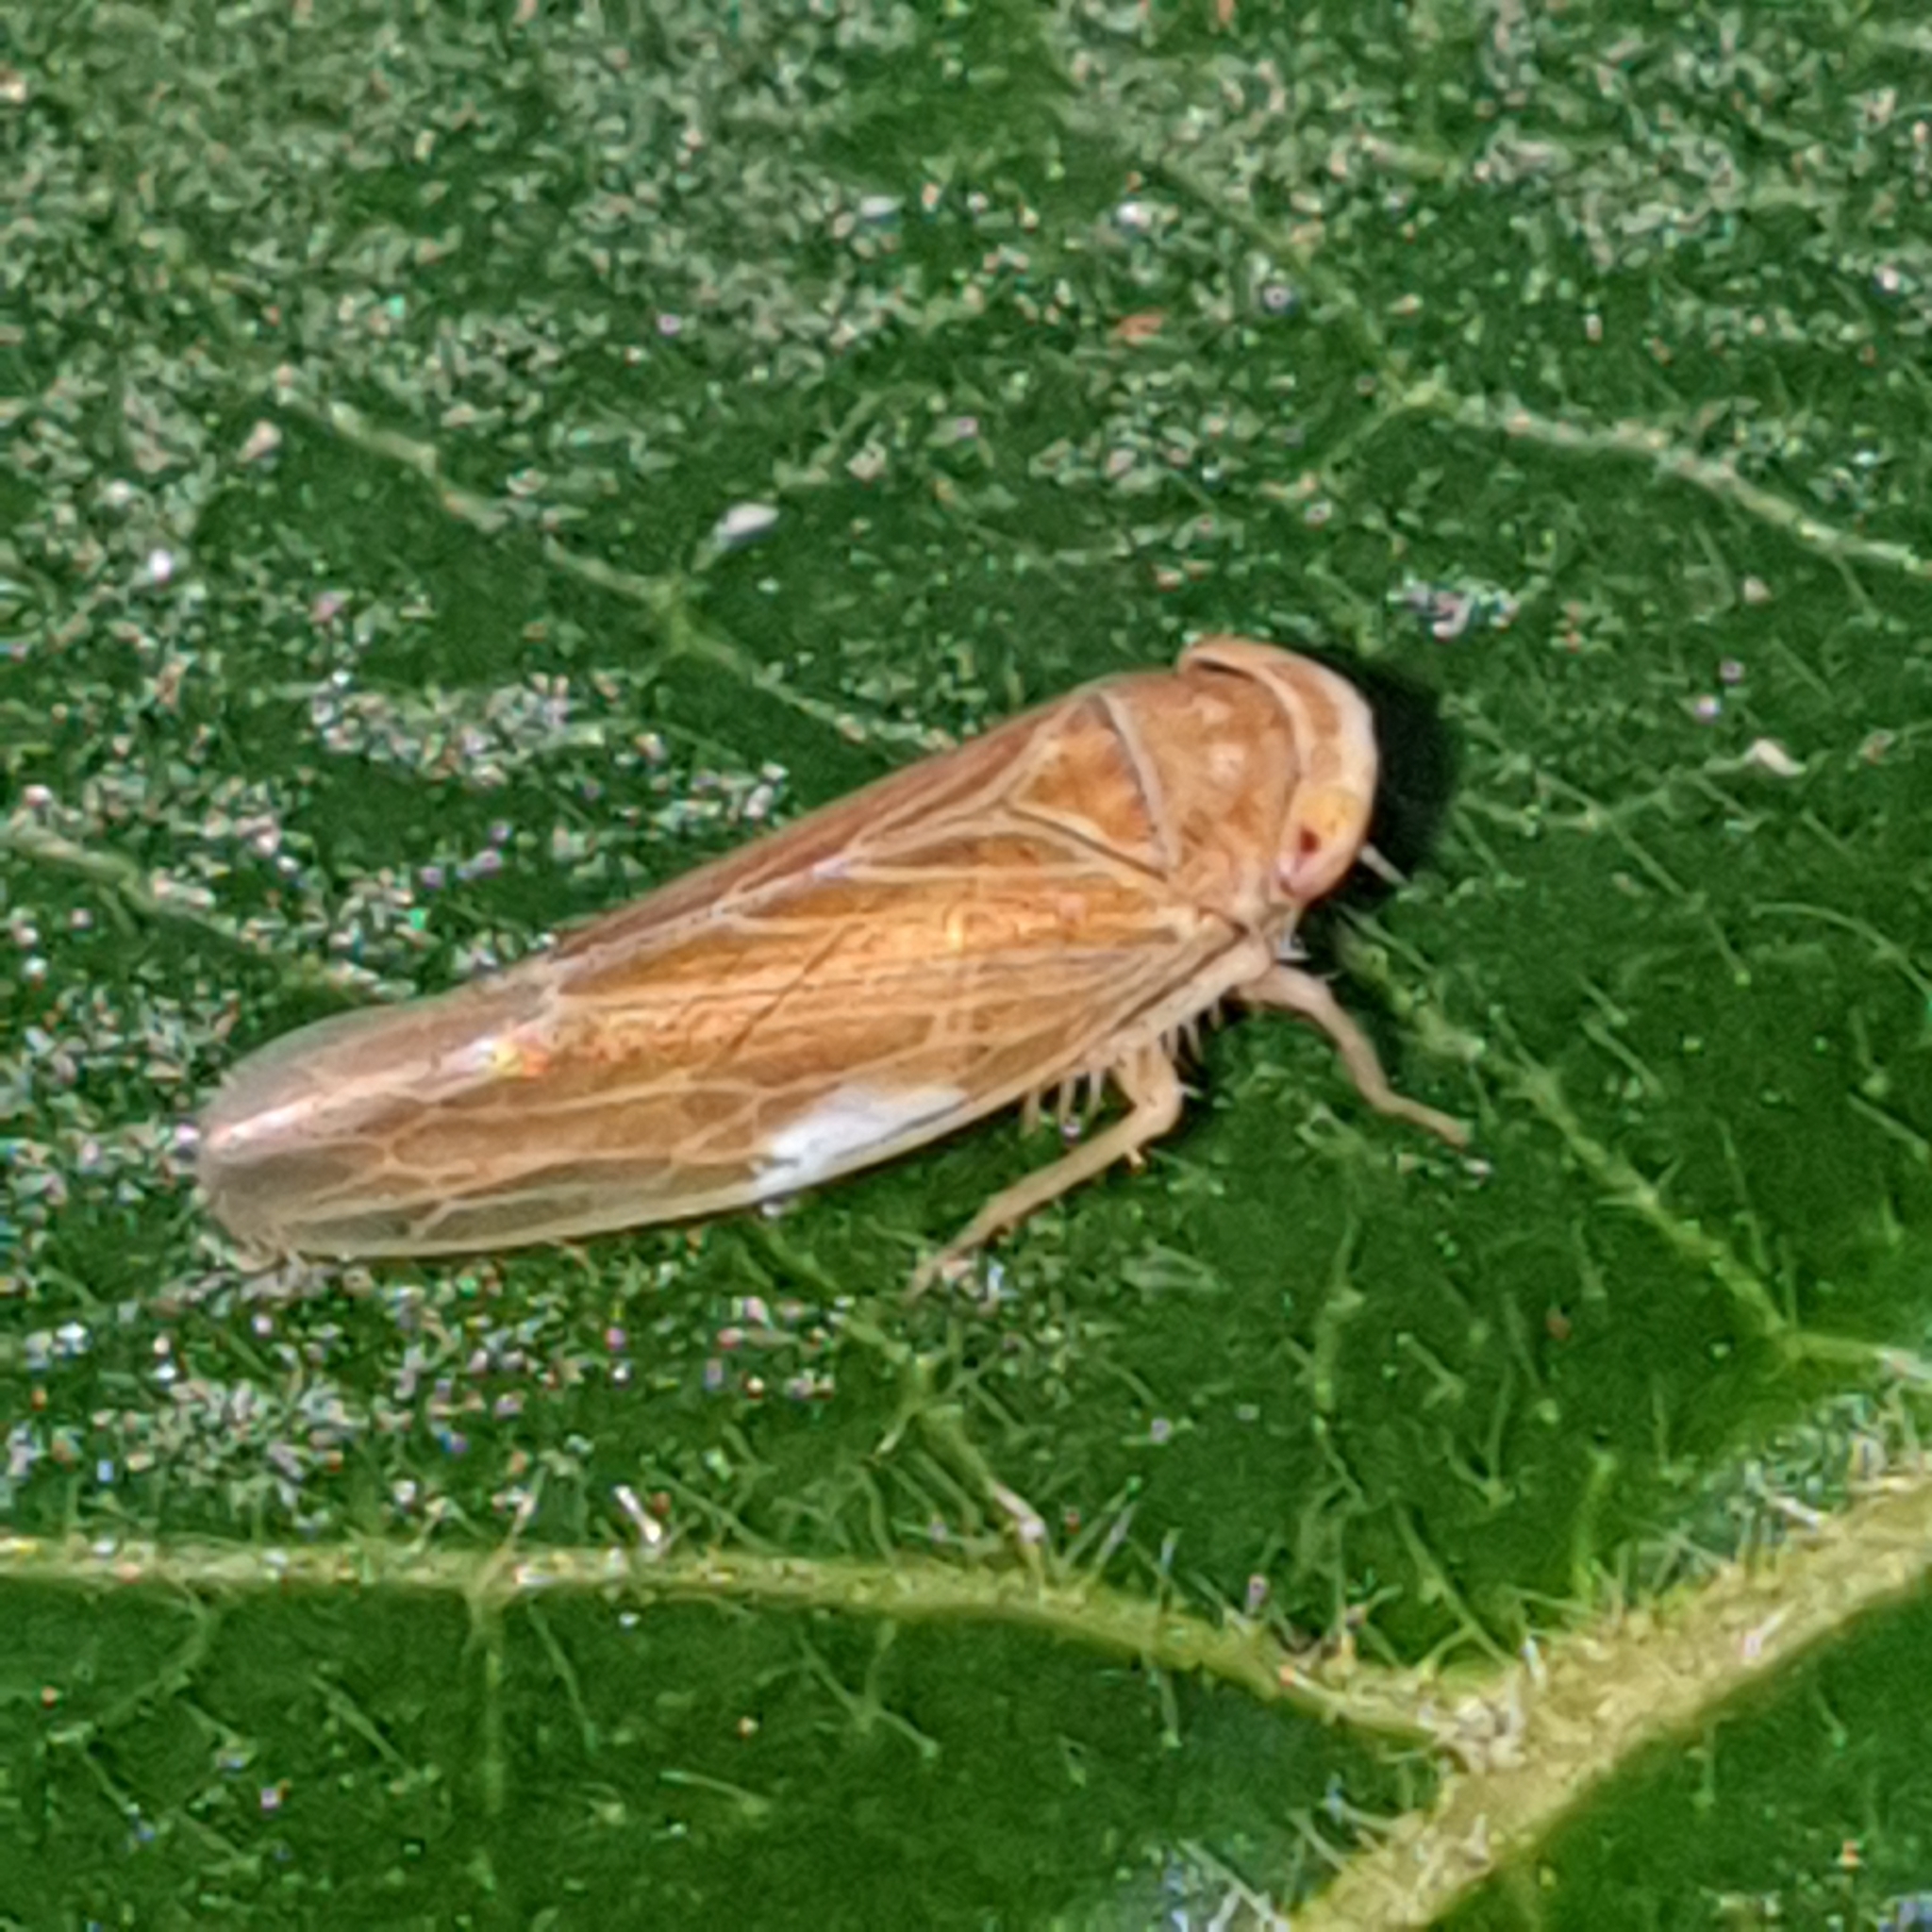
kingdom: Animalia
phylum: Arthropoda
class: Insecta
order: Hemiptera
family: Cicadellidae
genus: Idiodonus
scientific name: Idiodonus cruentatus
